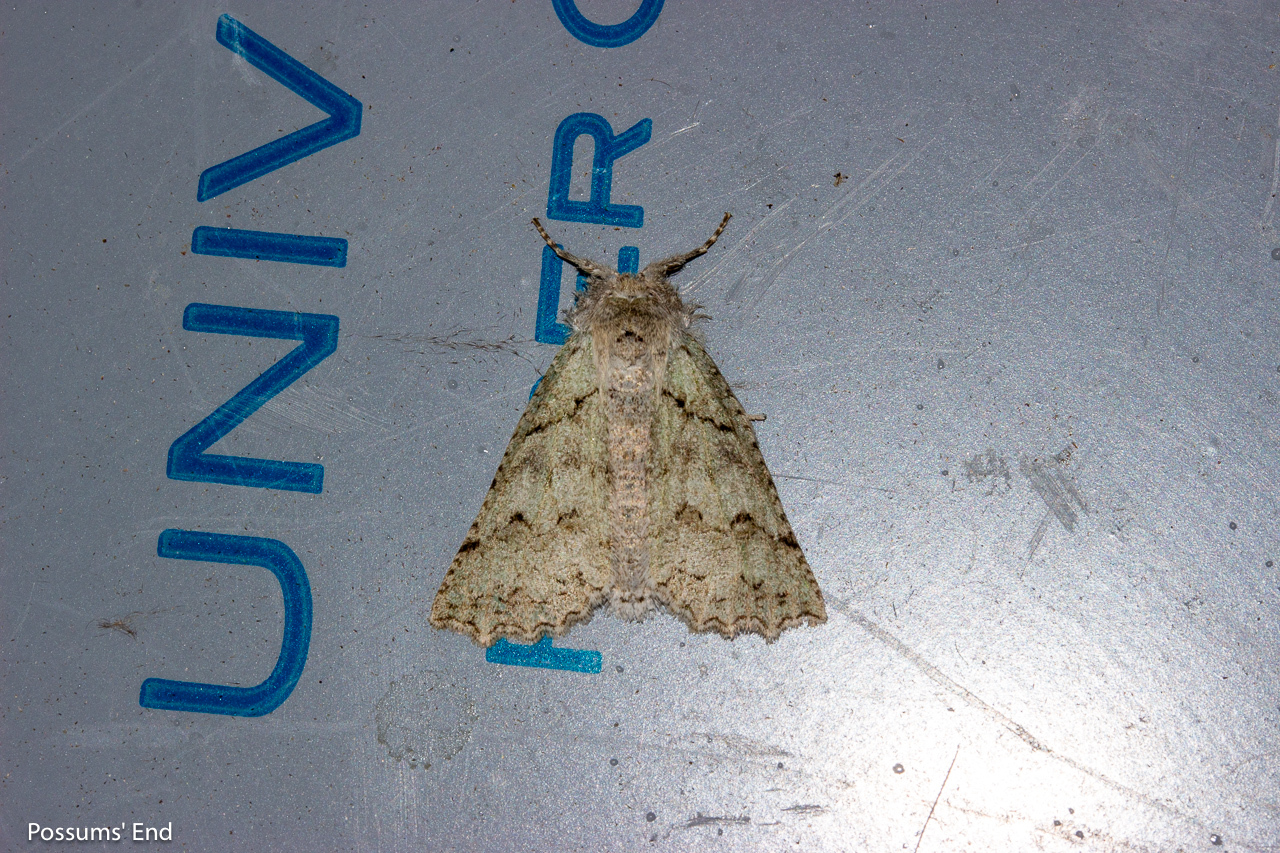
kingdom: Animalia
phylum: Arthropoda
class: Insecta
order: Lepidoptera
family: Geometridae
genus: Declana
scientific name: Declana niveata
